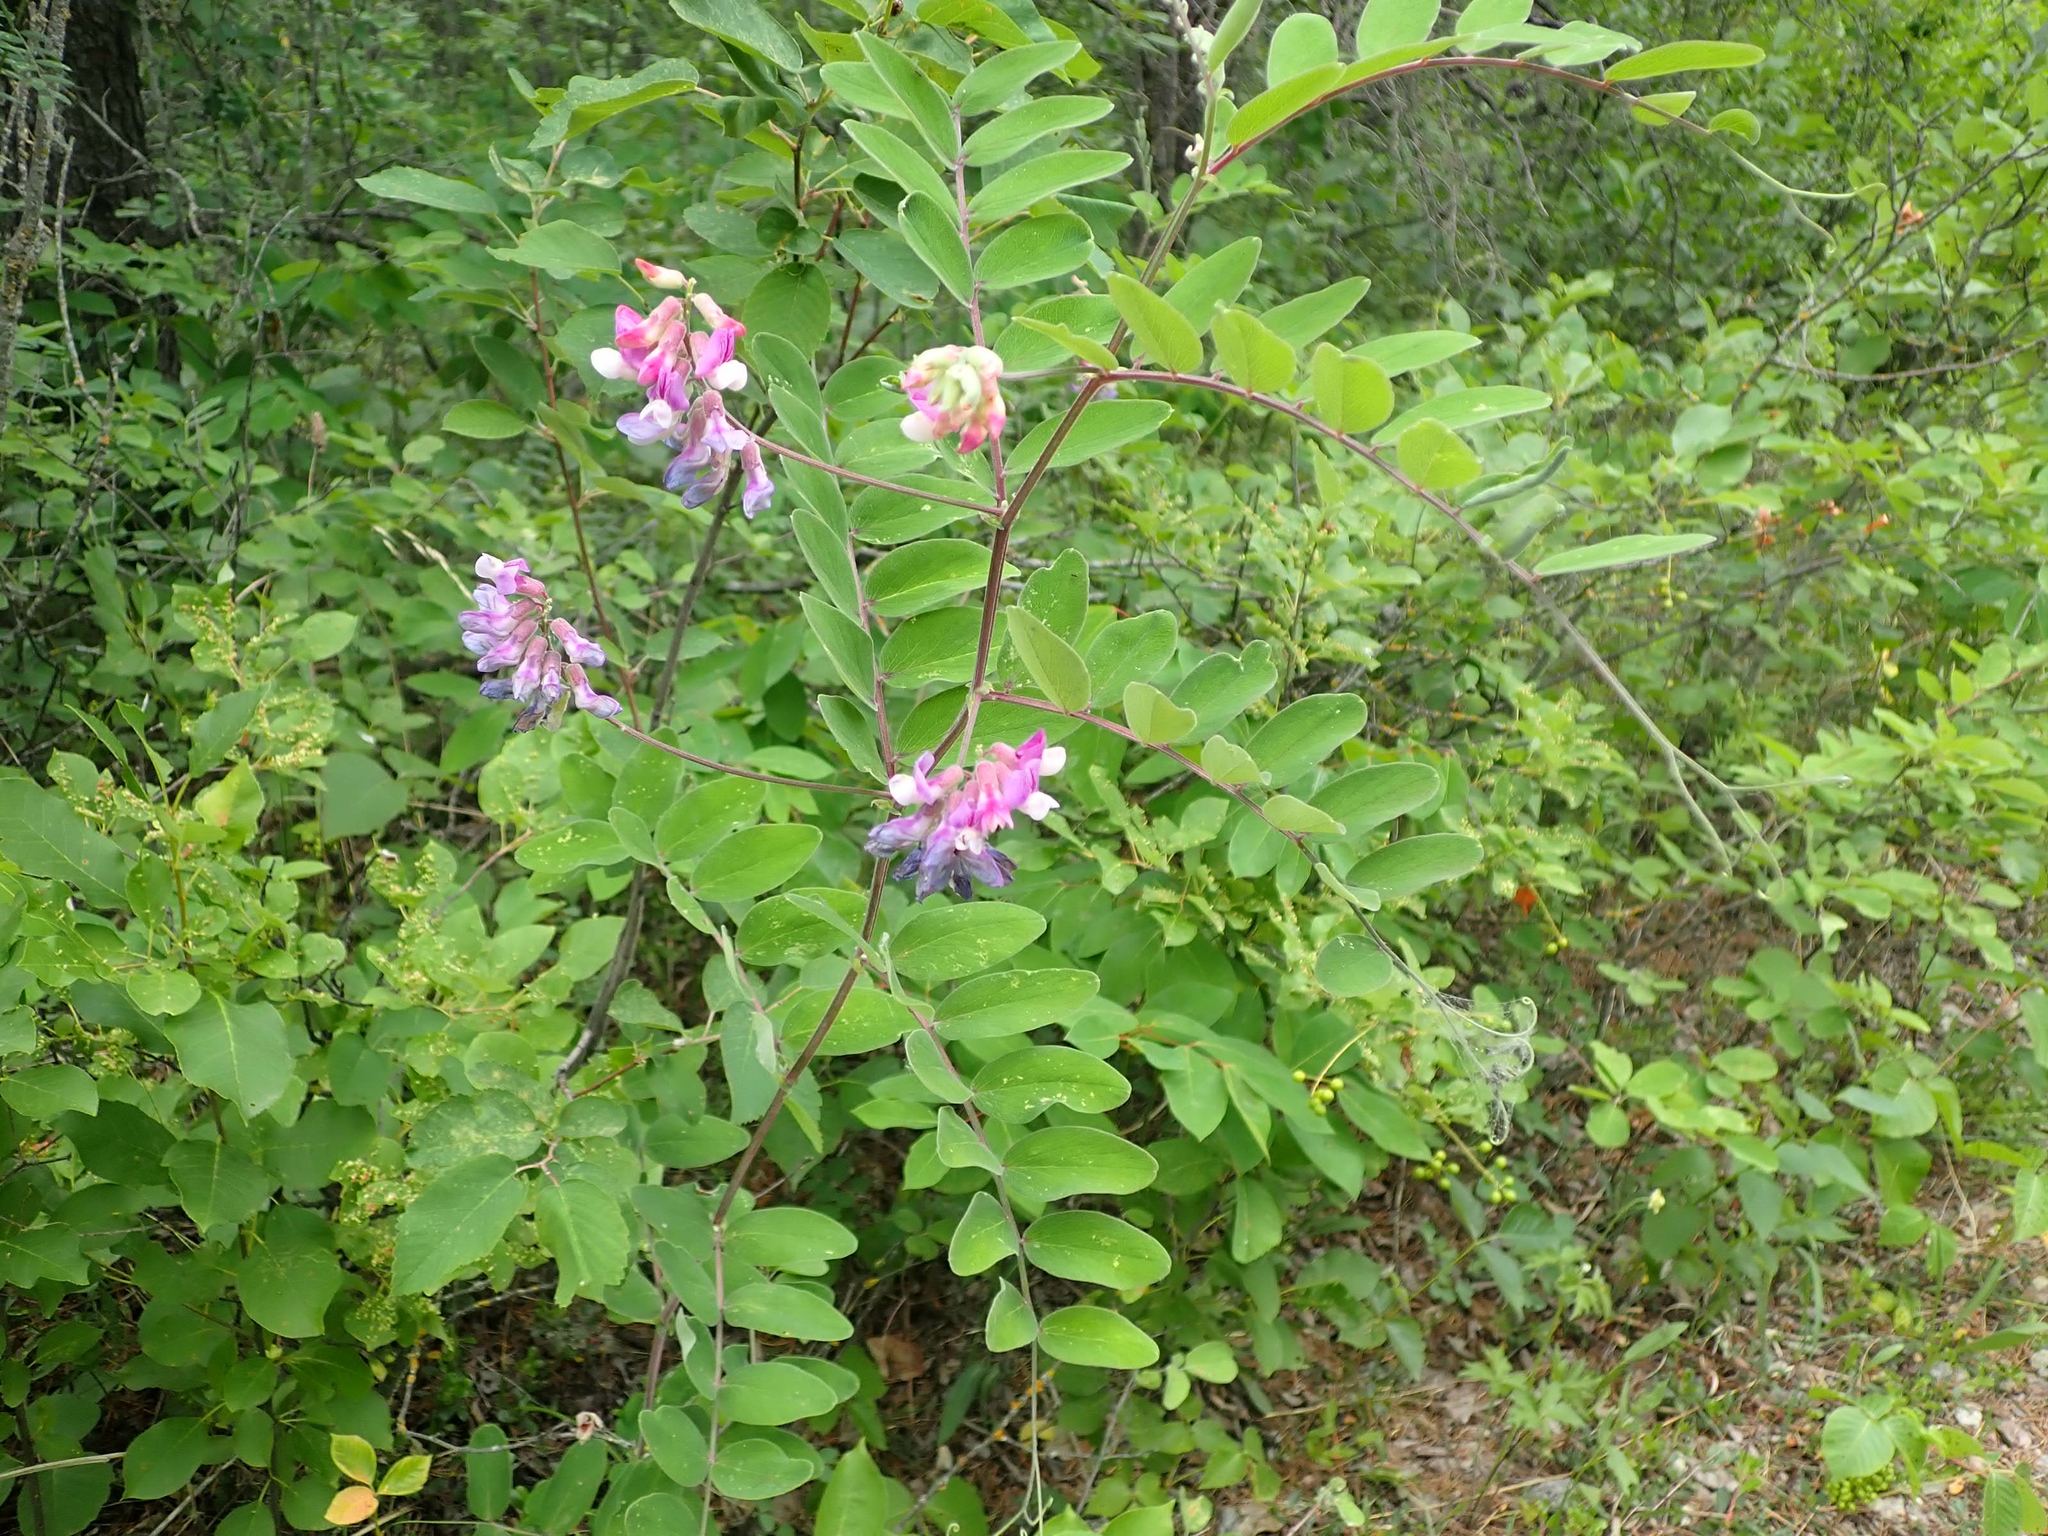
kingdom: Plantae
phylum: Tracheophyta
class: Magnoliopsida
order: Fabales
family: Fabaceae
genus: Lathyrus
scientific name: Lathyrus venosus
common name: Forest-pea
